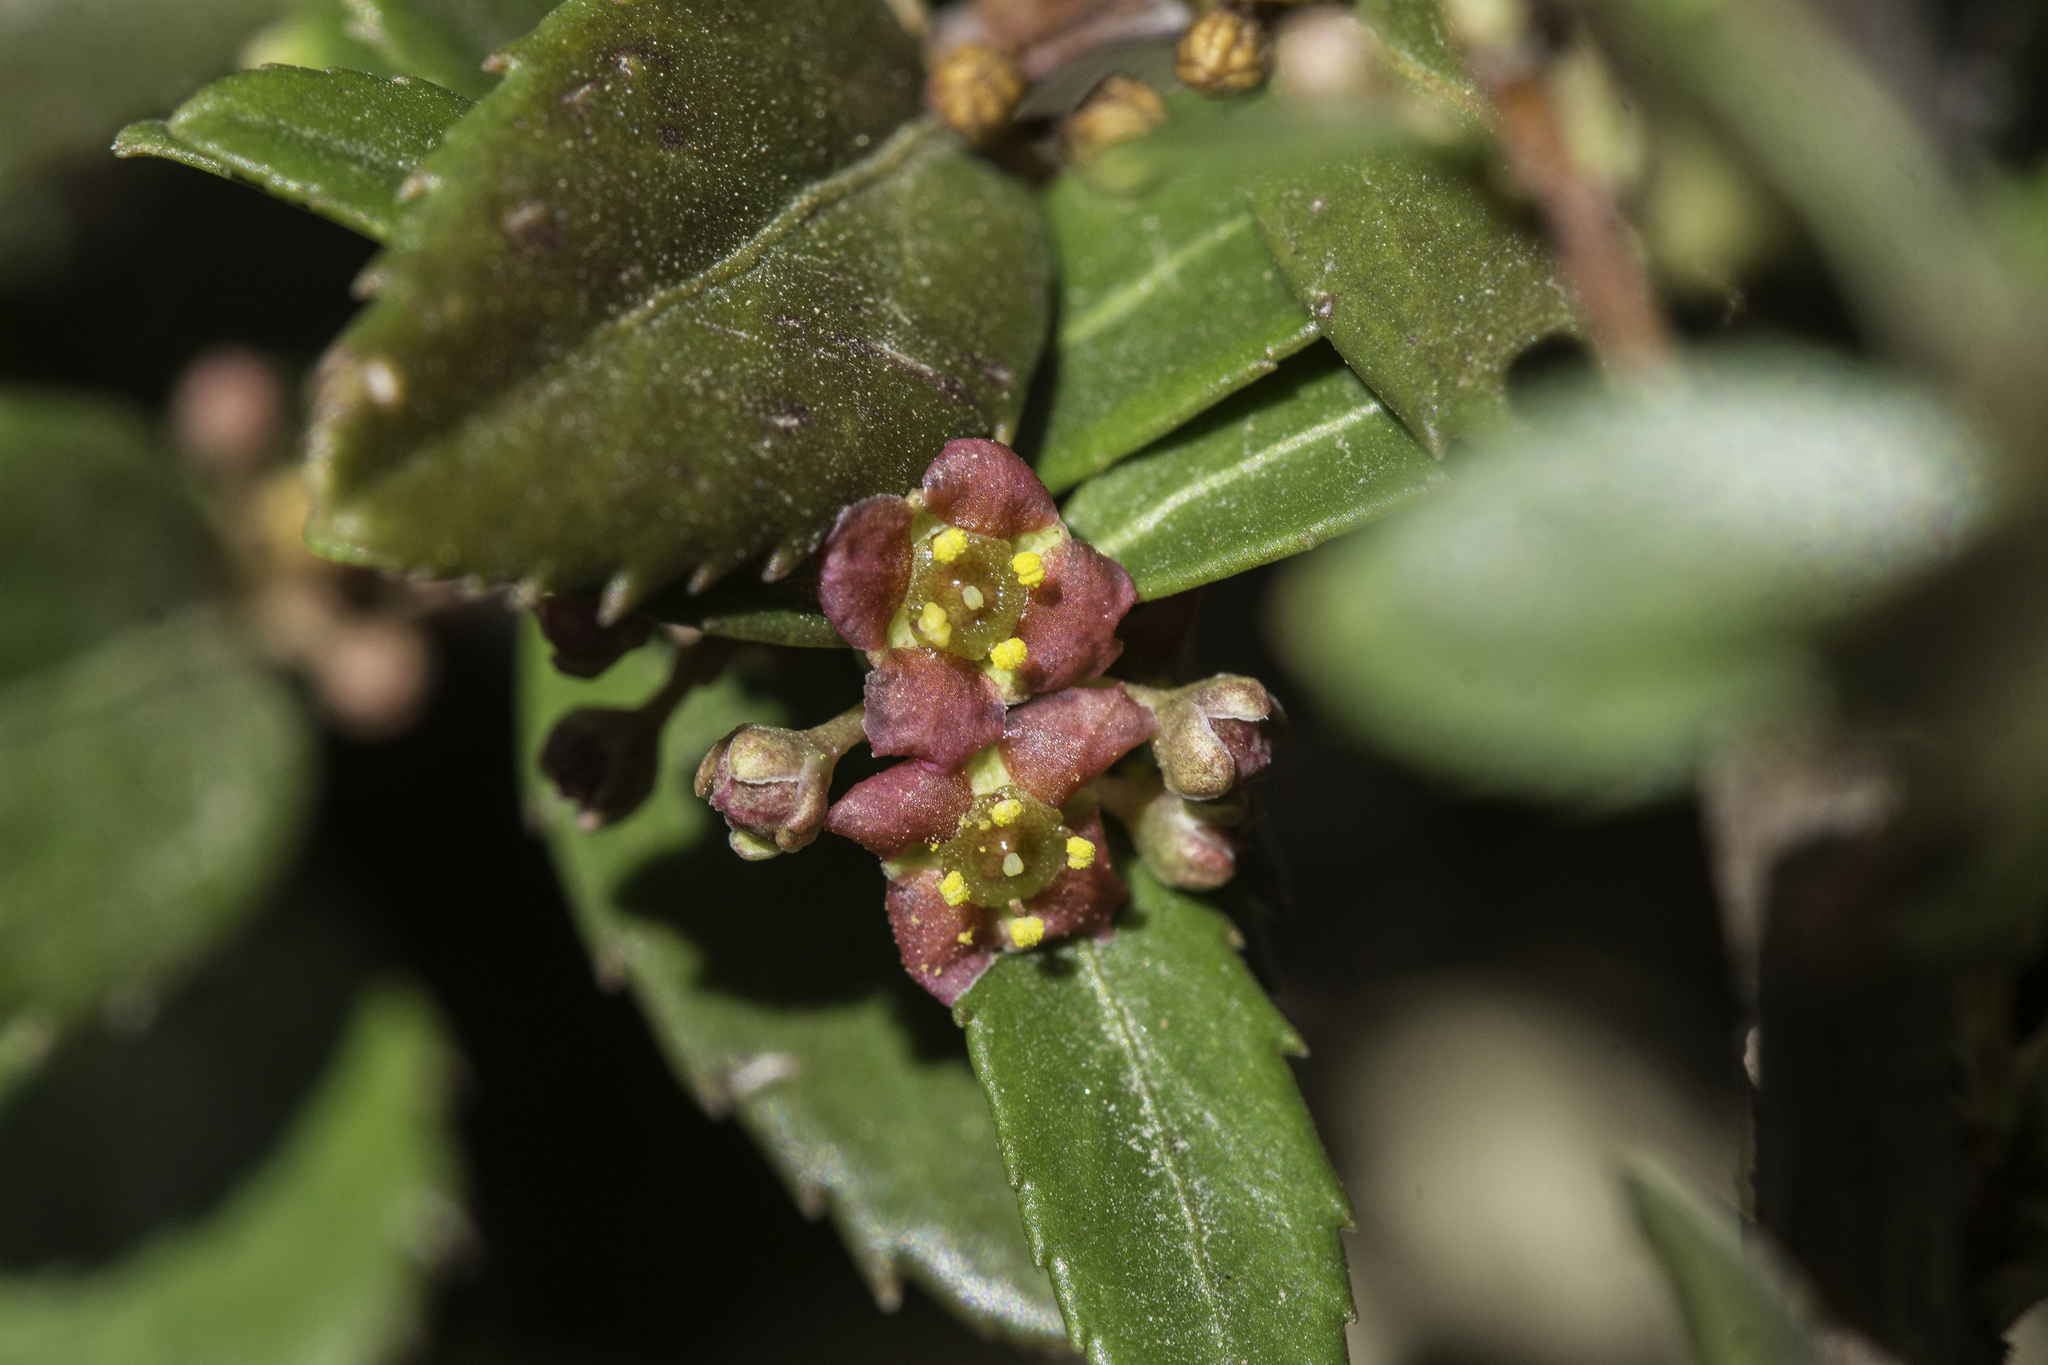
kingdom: Plantae
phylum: Tracheophyta
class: Magnoliopsida
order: Celastrales
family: Celastraceae
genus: Paxistima
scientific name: Paxistima myrsinites
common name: Mountain-lover
